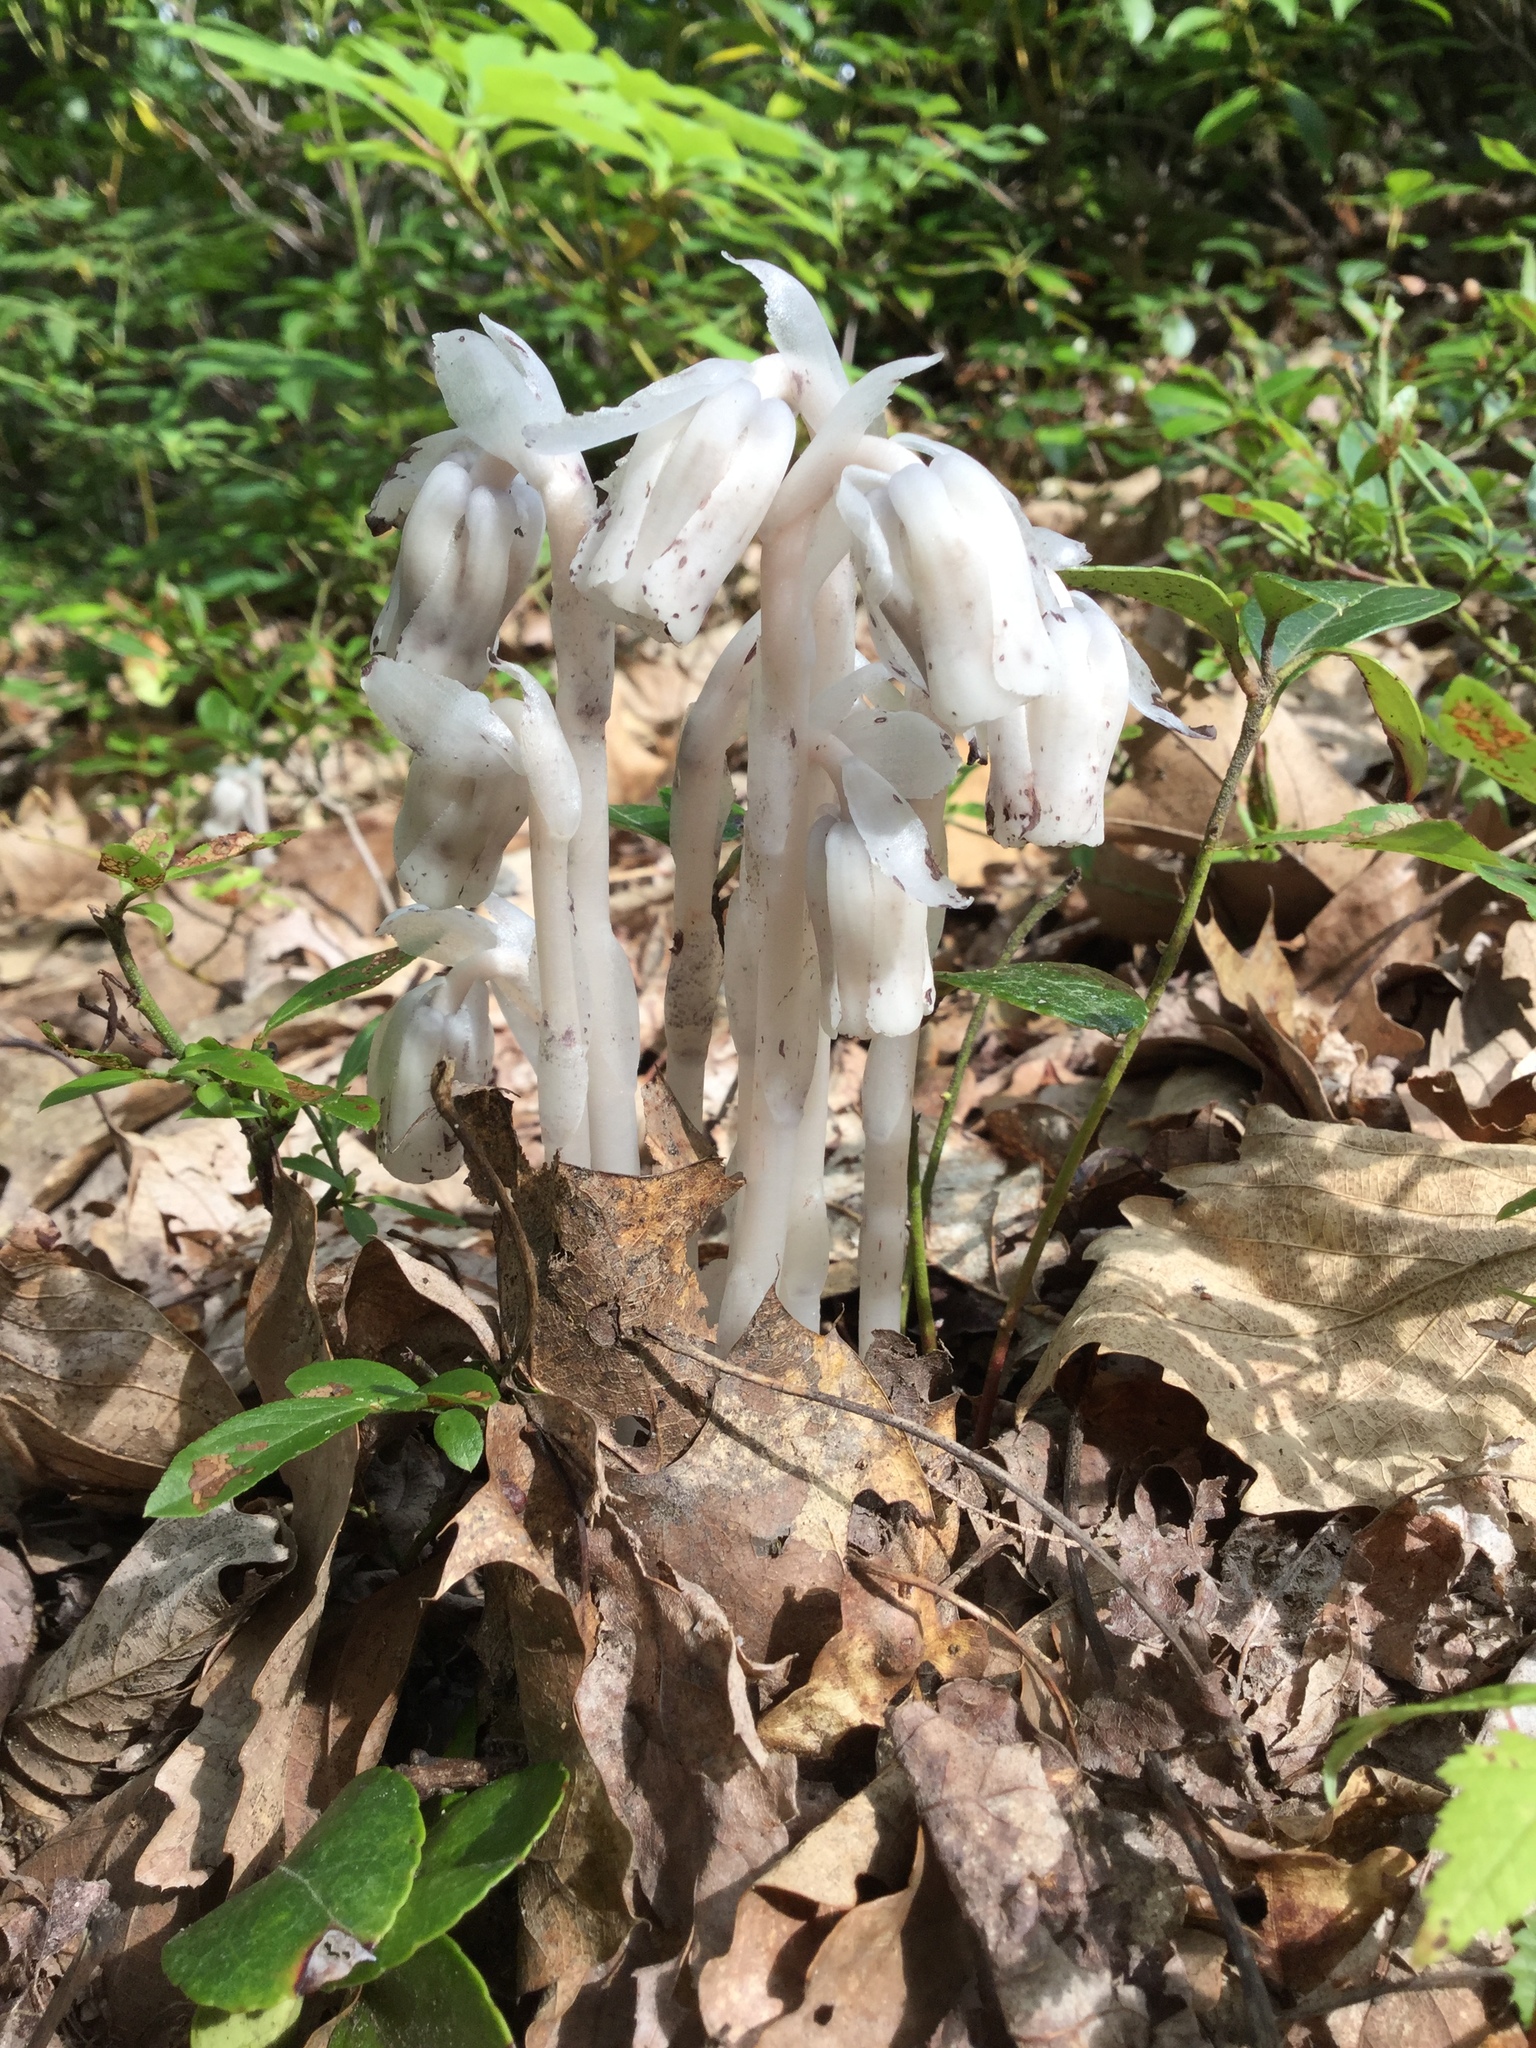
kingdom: Plantae
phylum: Tracheophyta
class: Magnoliopsida
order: Ericales
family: Ericaceae
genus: Monotropa
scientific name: Monotropa uniflora
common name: Convulsion root
